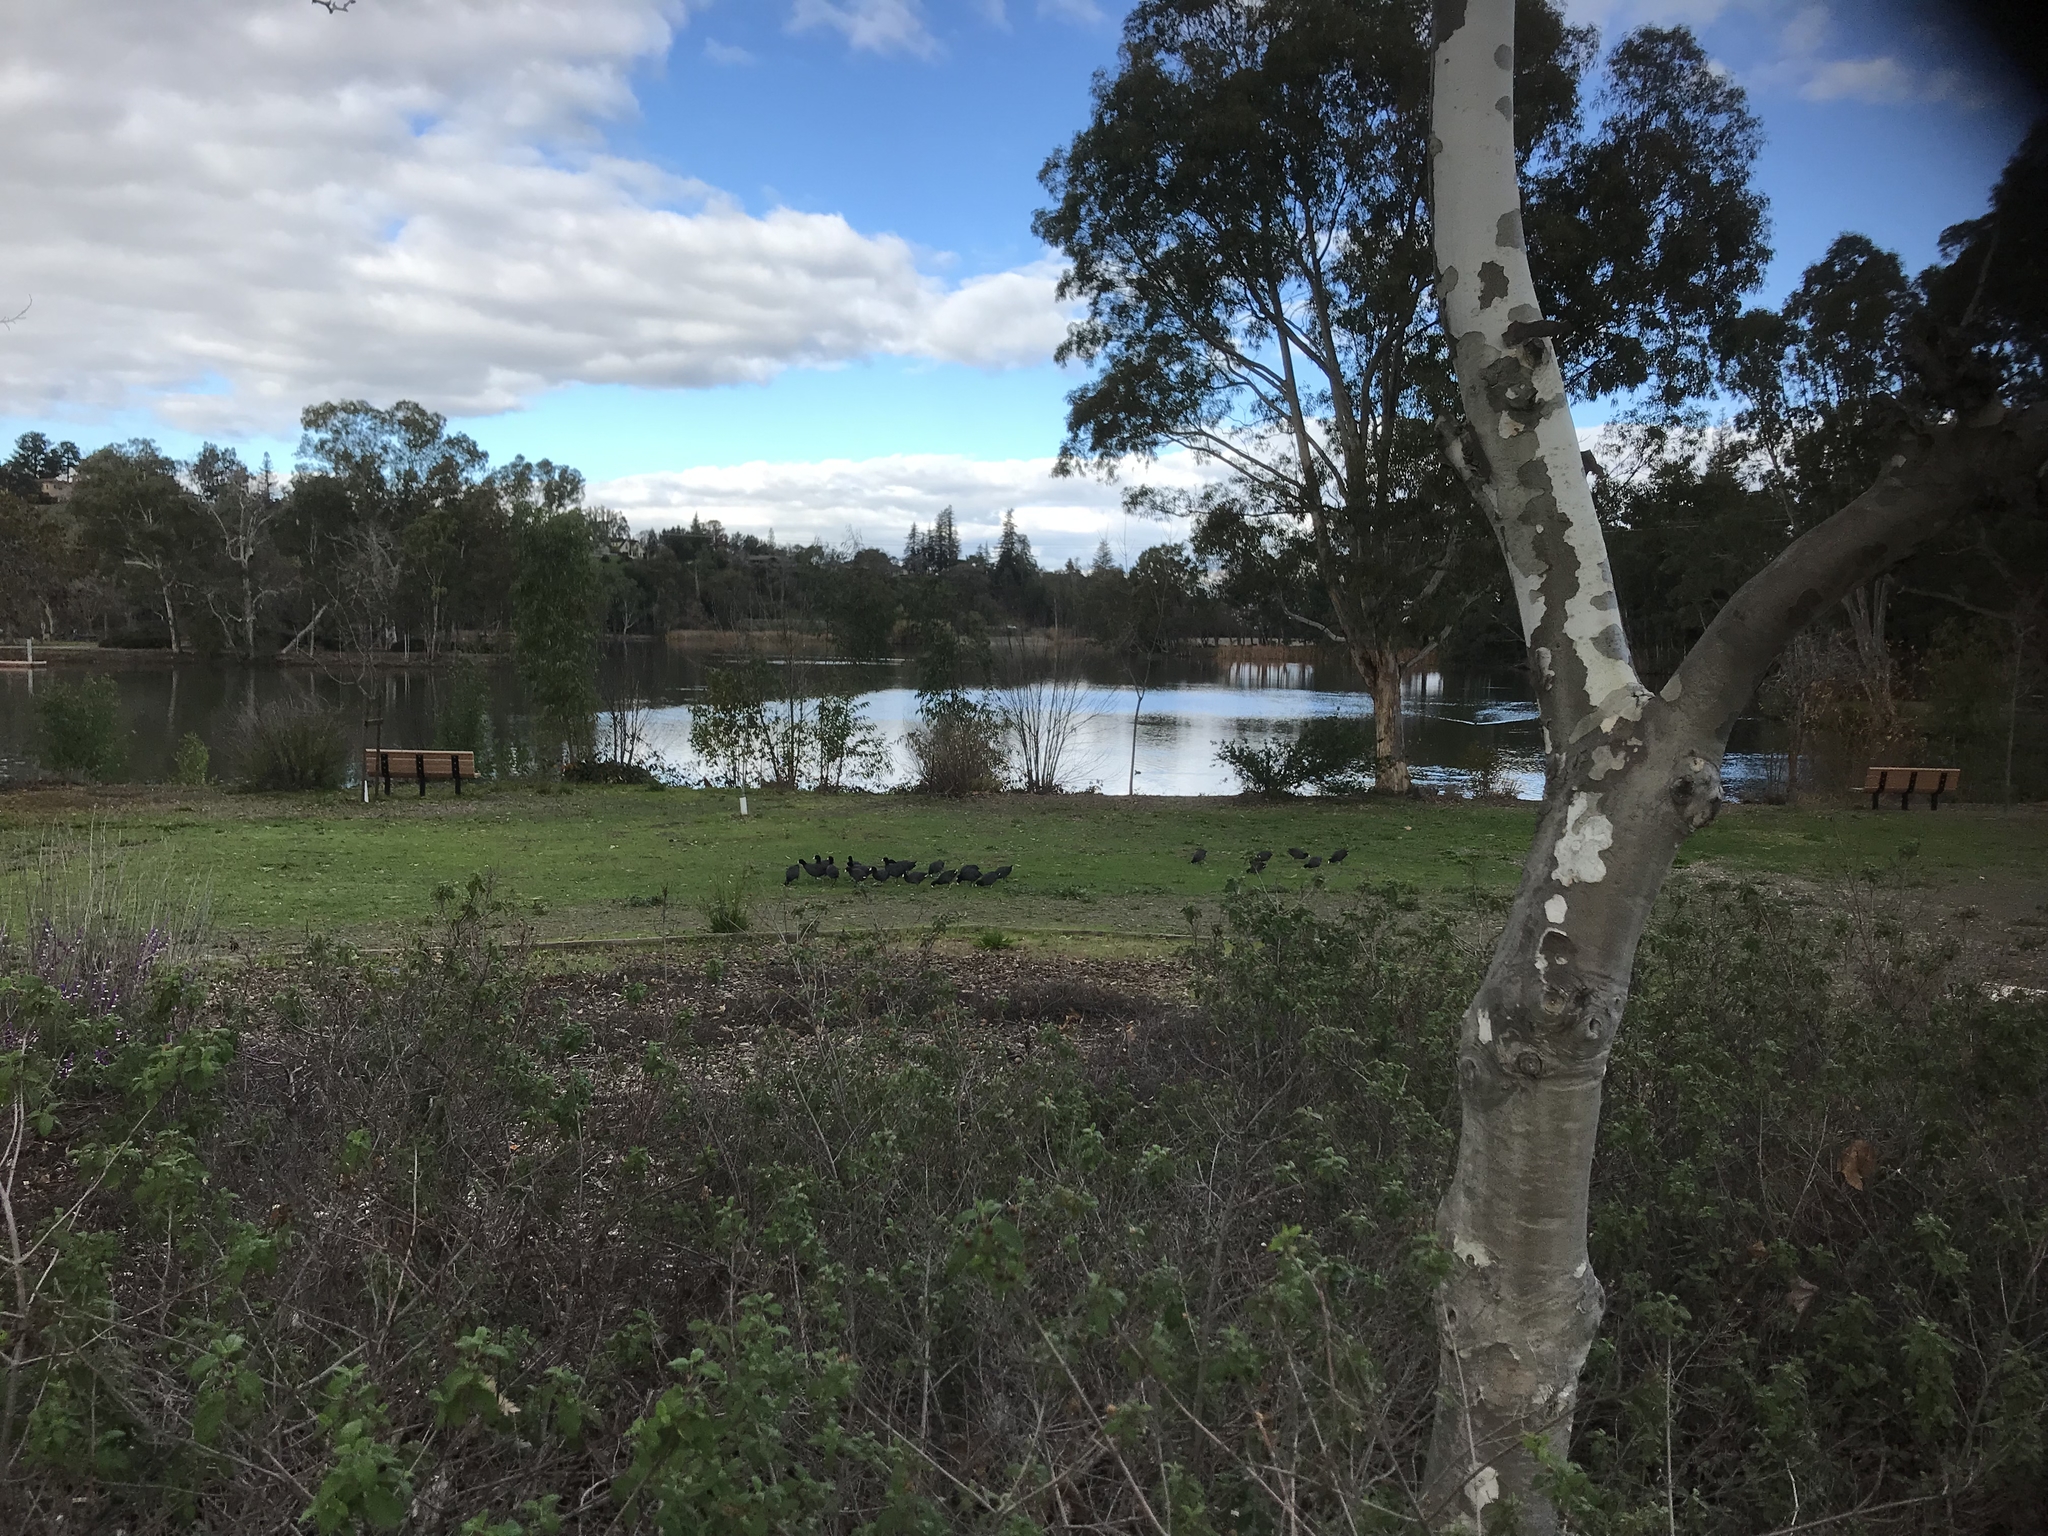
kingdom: Animalia
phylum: Chordata
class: Aves
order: Gruiformes
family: Rallidae
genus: Fulica
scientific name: Fulica americana
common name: American coot
